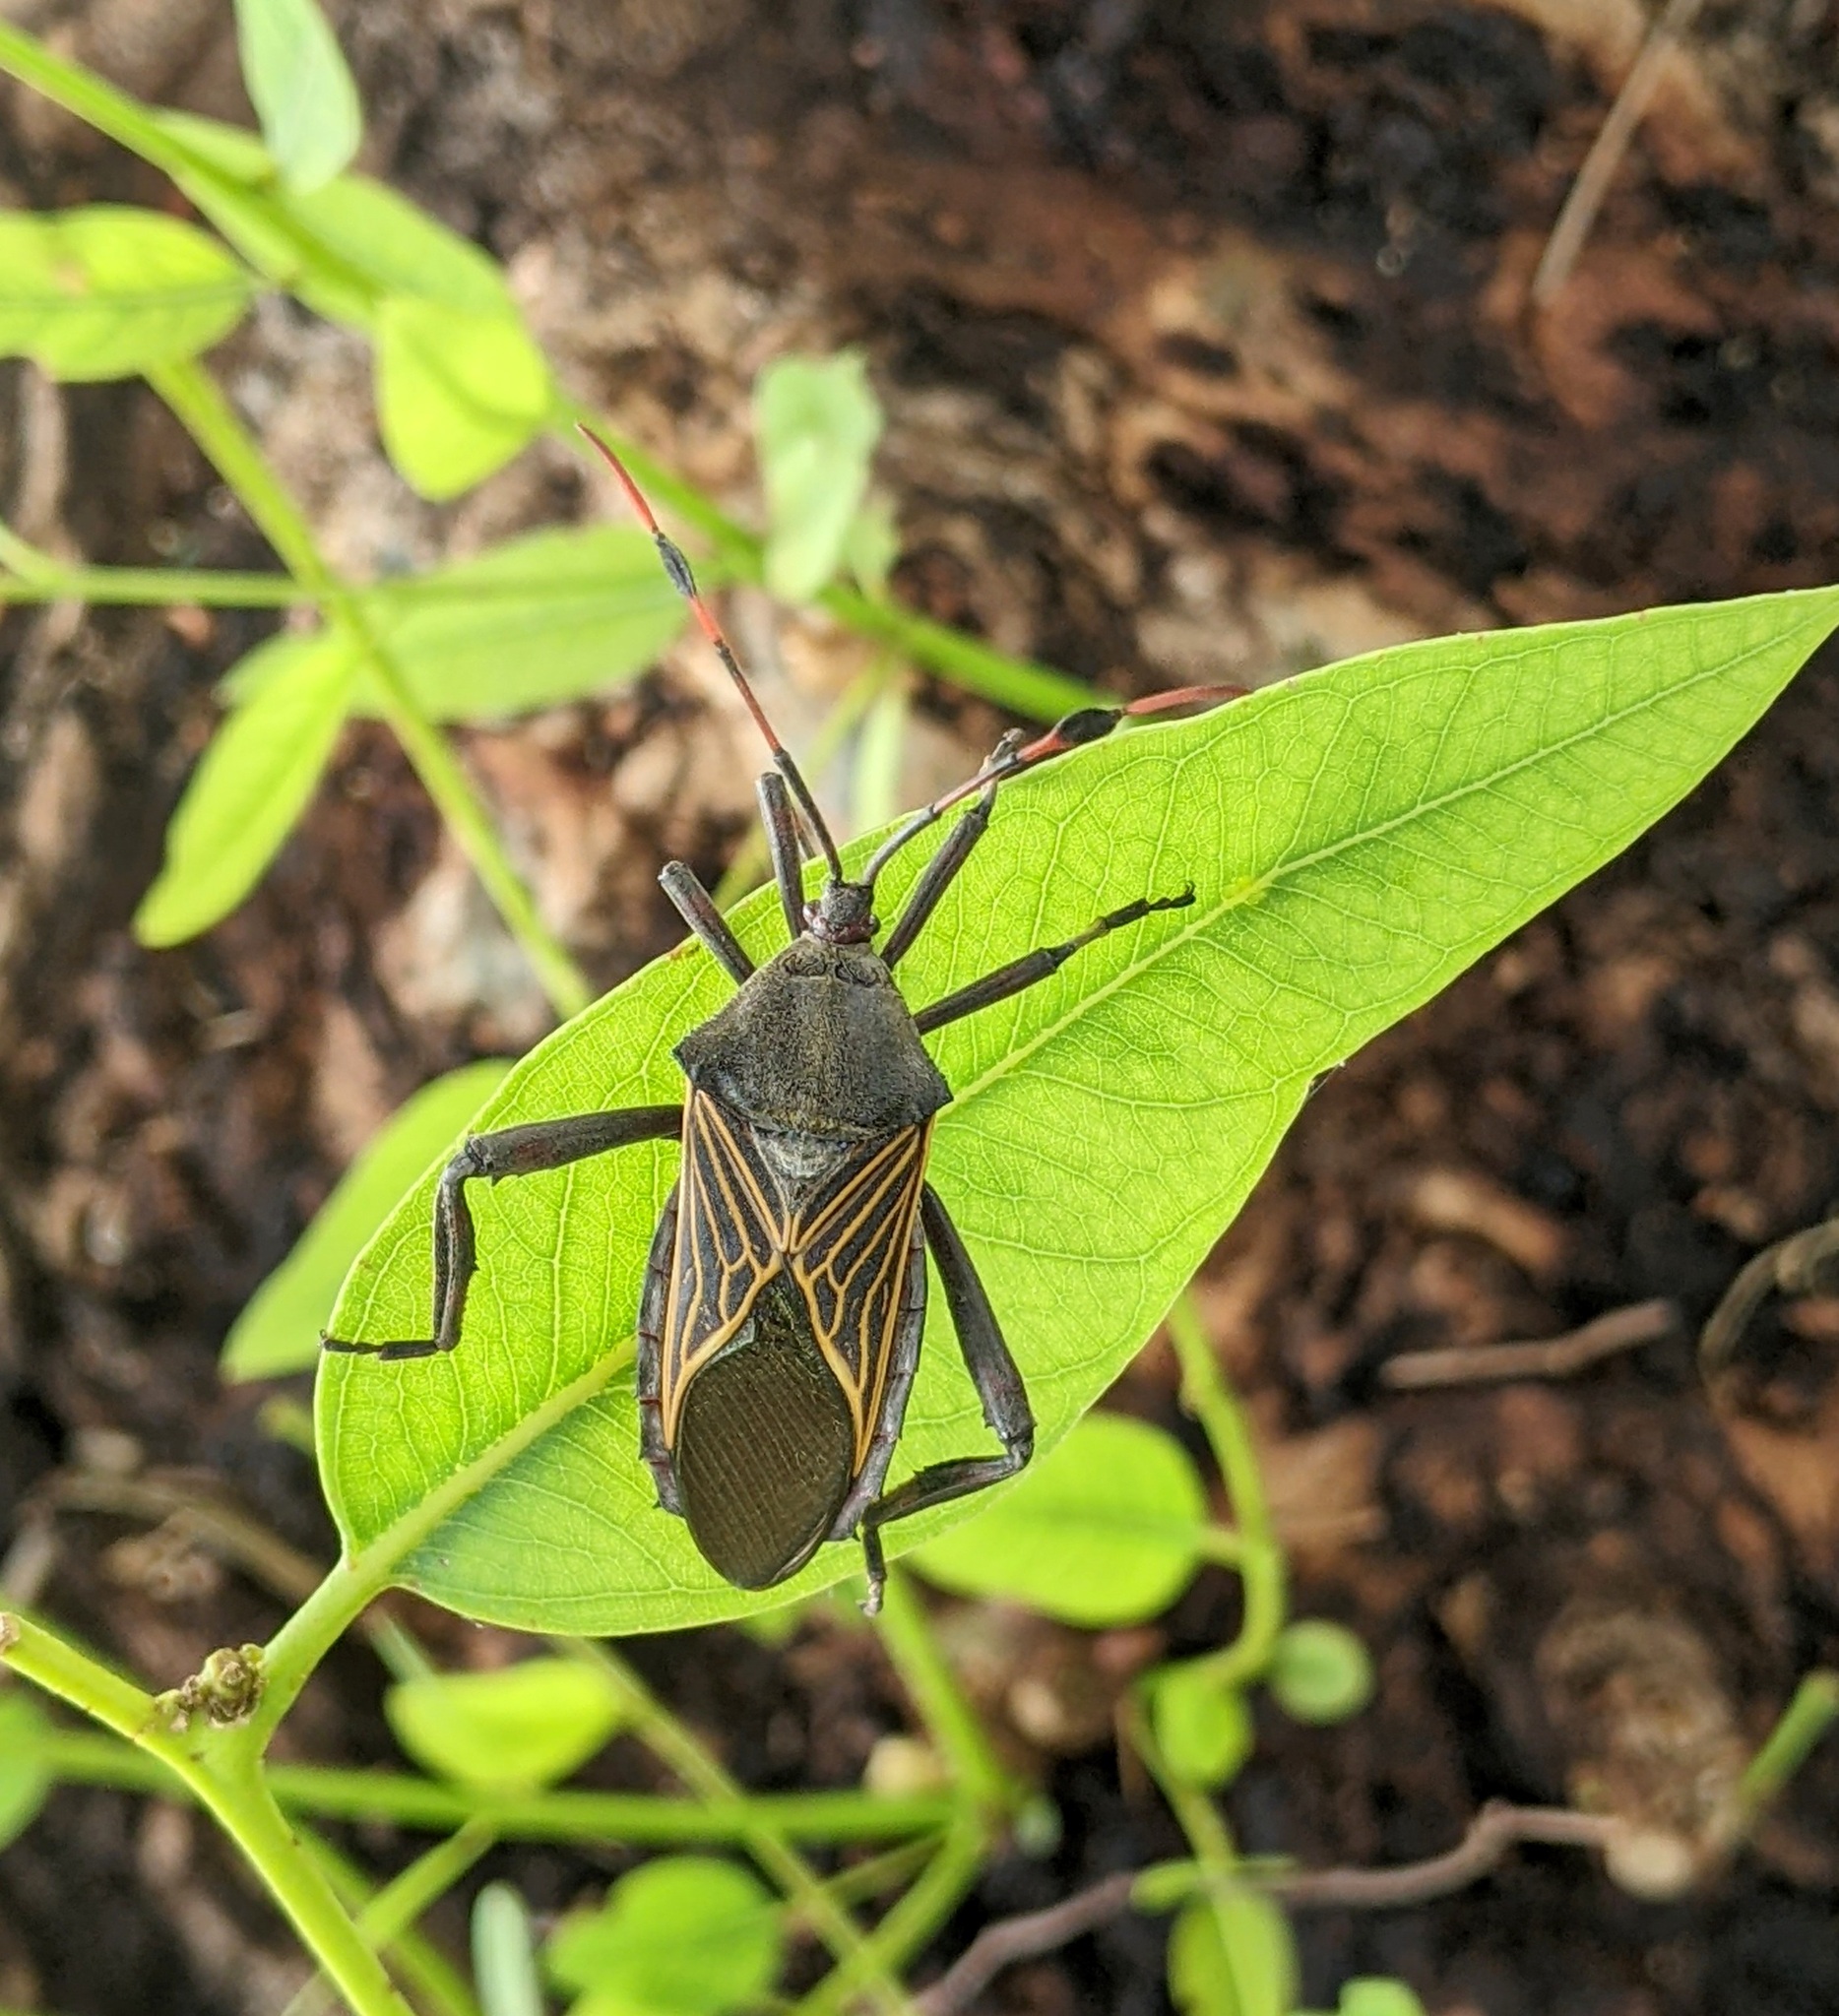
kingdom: Animalia
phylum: Arthropoda
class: Insecta
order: Hemiptera
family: Coreidae
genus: Thasus
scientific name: Thasus neocalifornicus
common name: Giant mesquite bug
